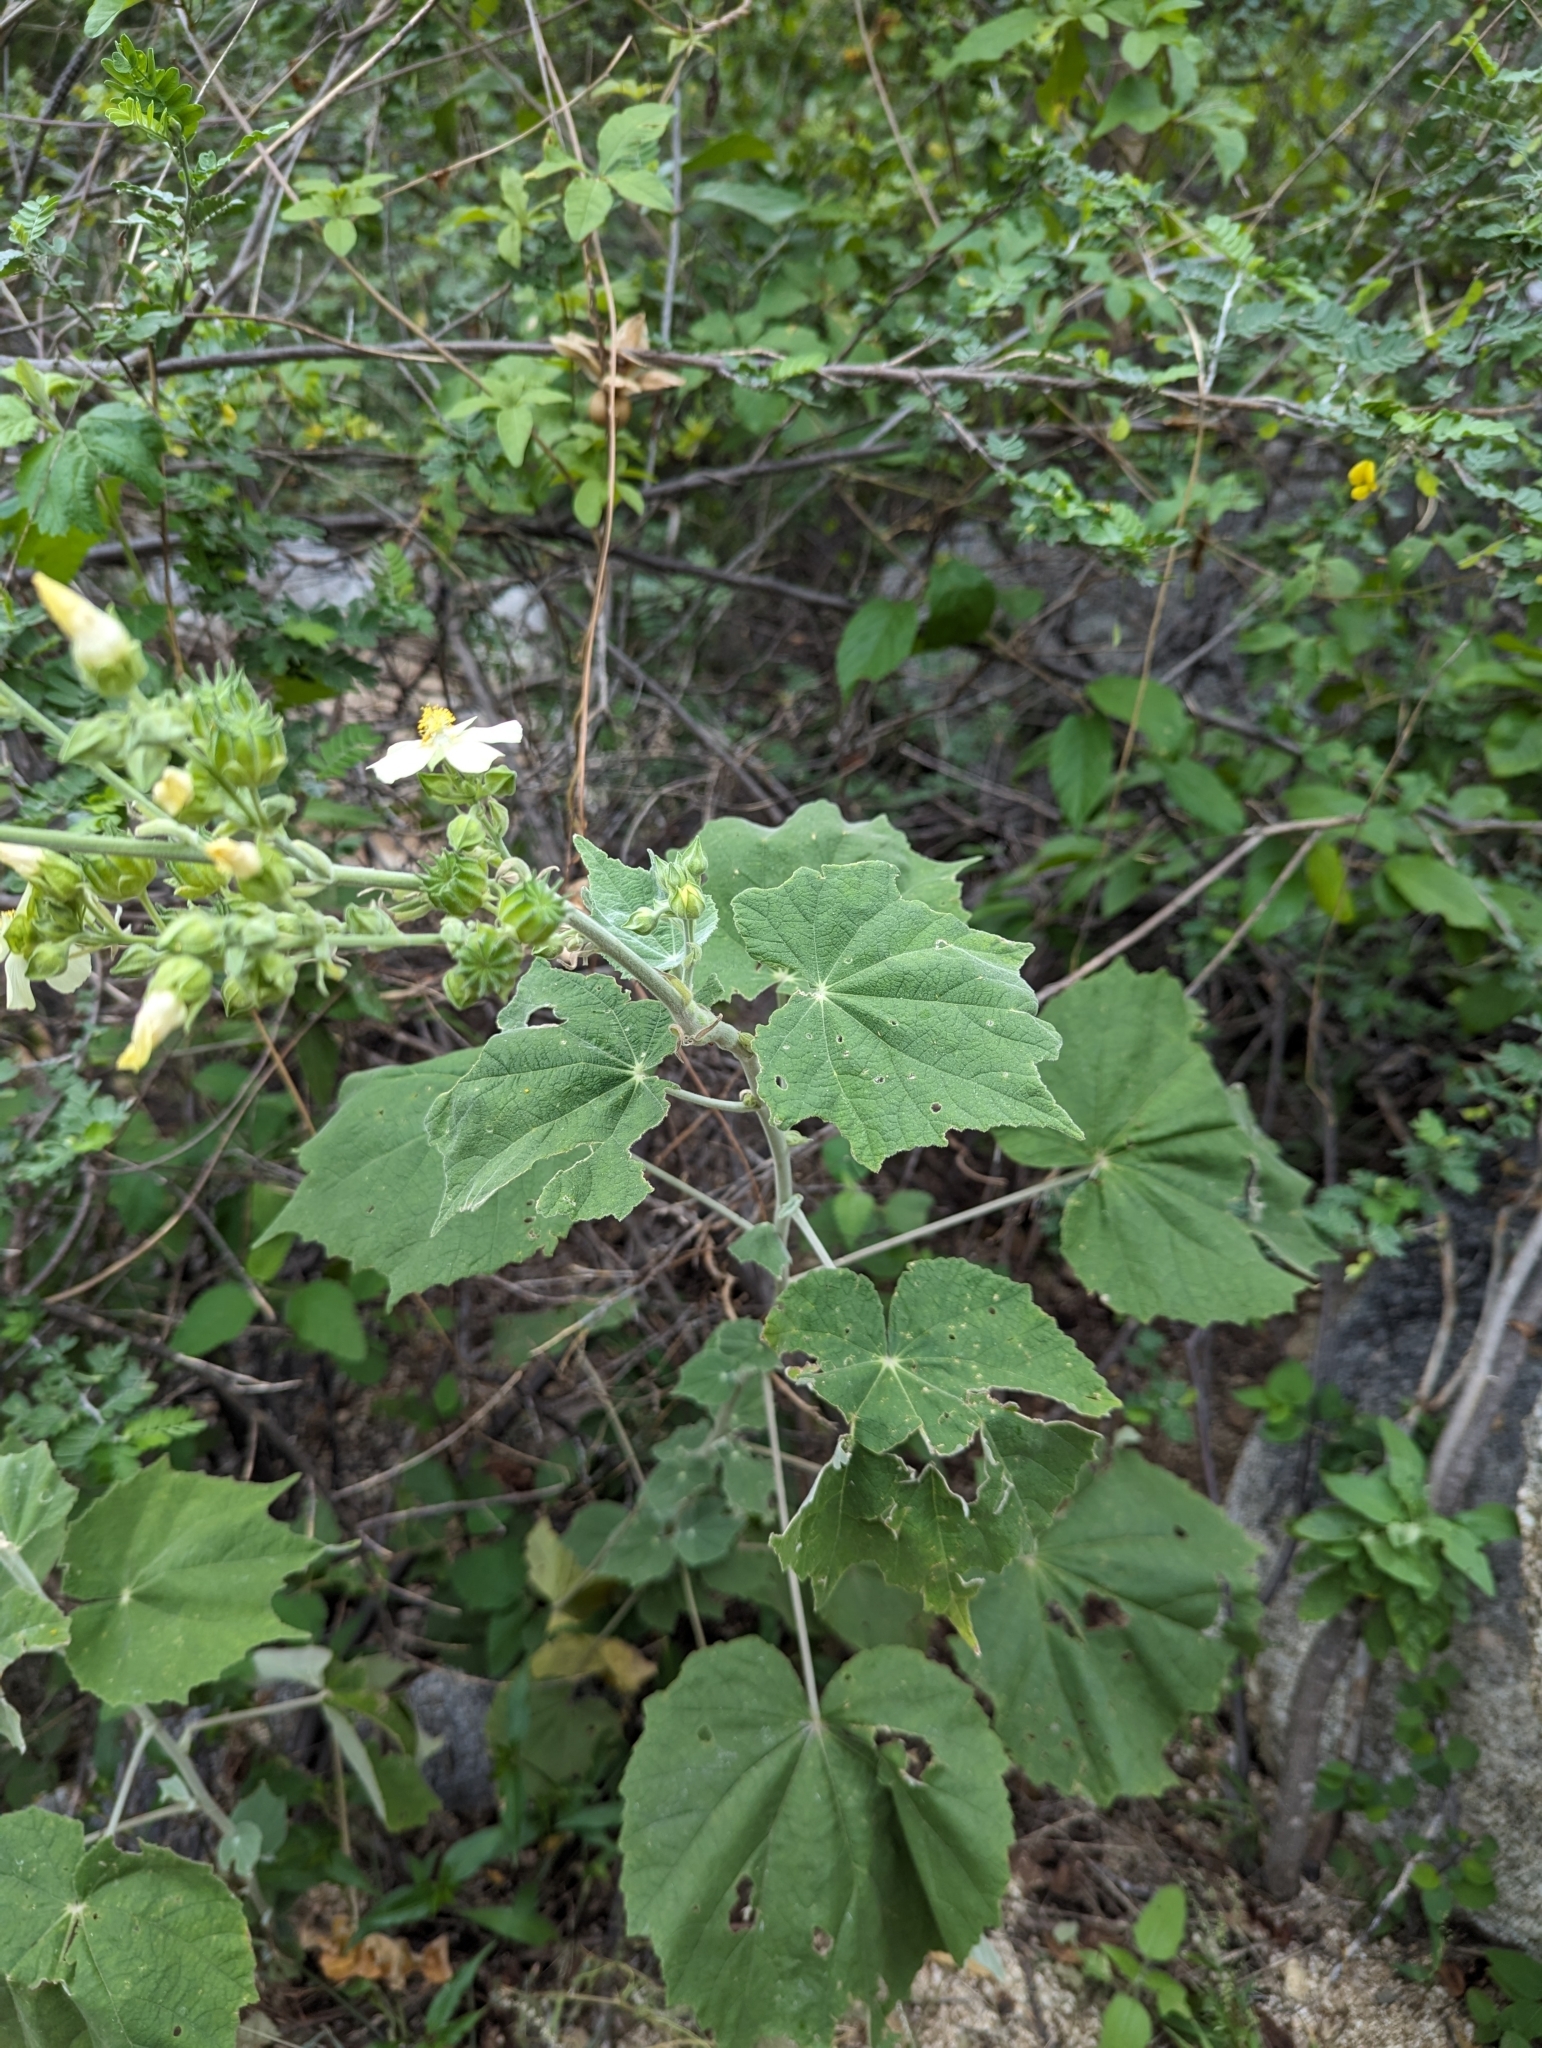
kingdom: Plantae
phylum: Tracheophyta
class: Magnoliopsida
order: Malvales
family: Malvaceae
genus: Abutilon
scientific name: Abutilon xanti
